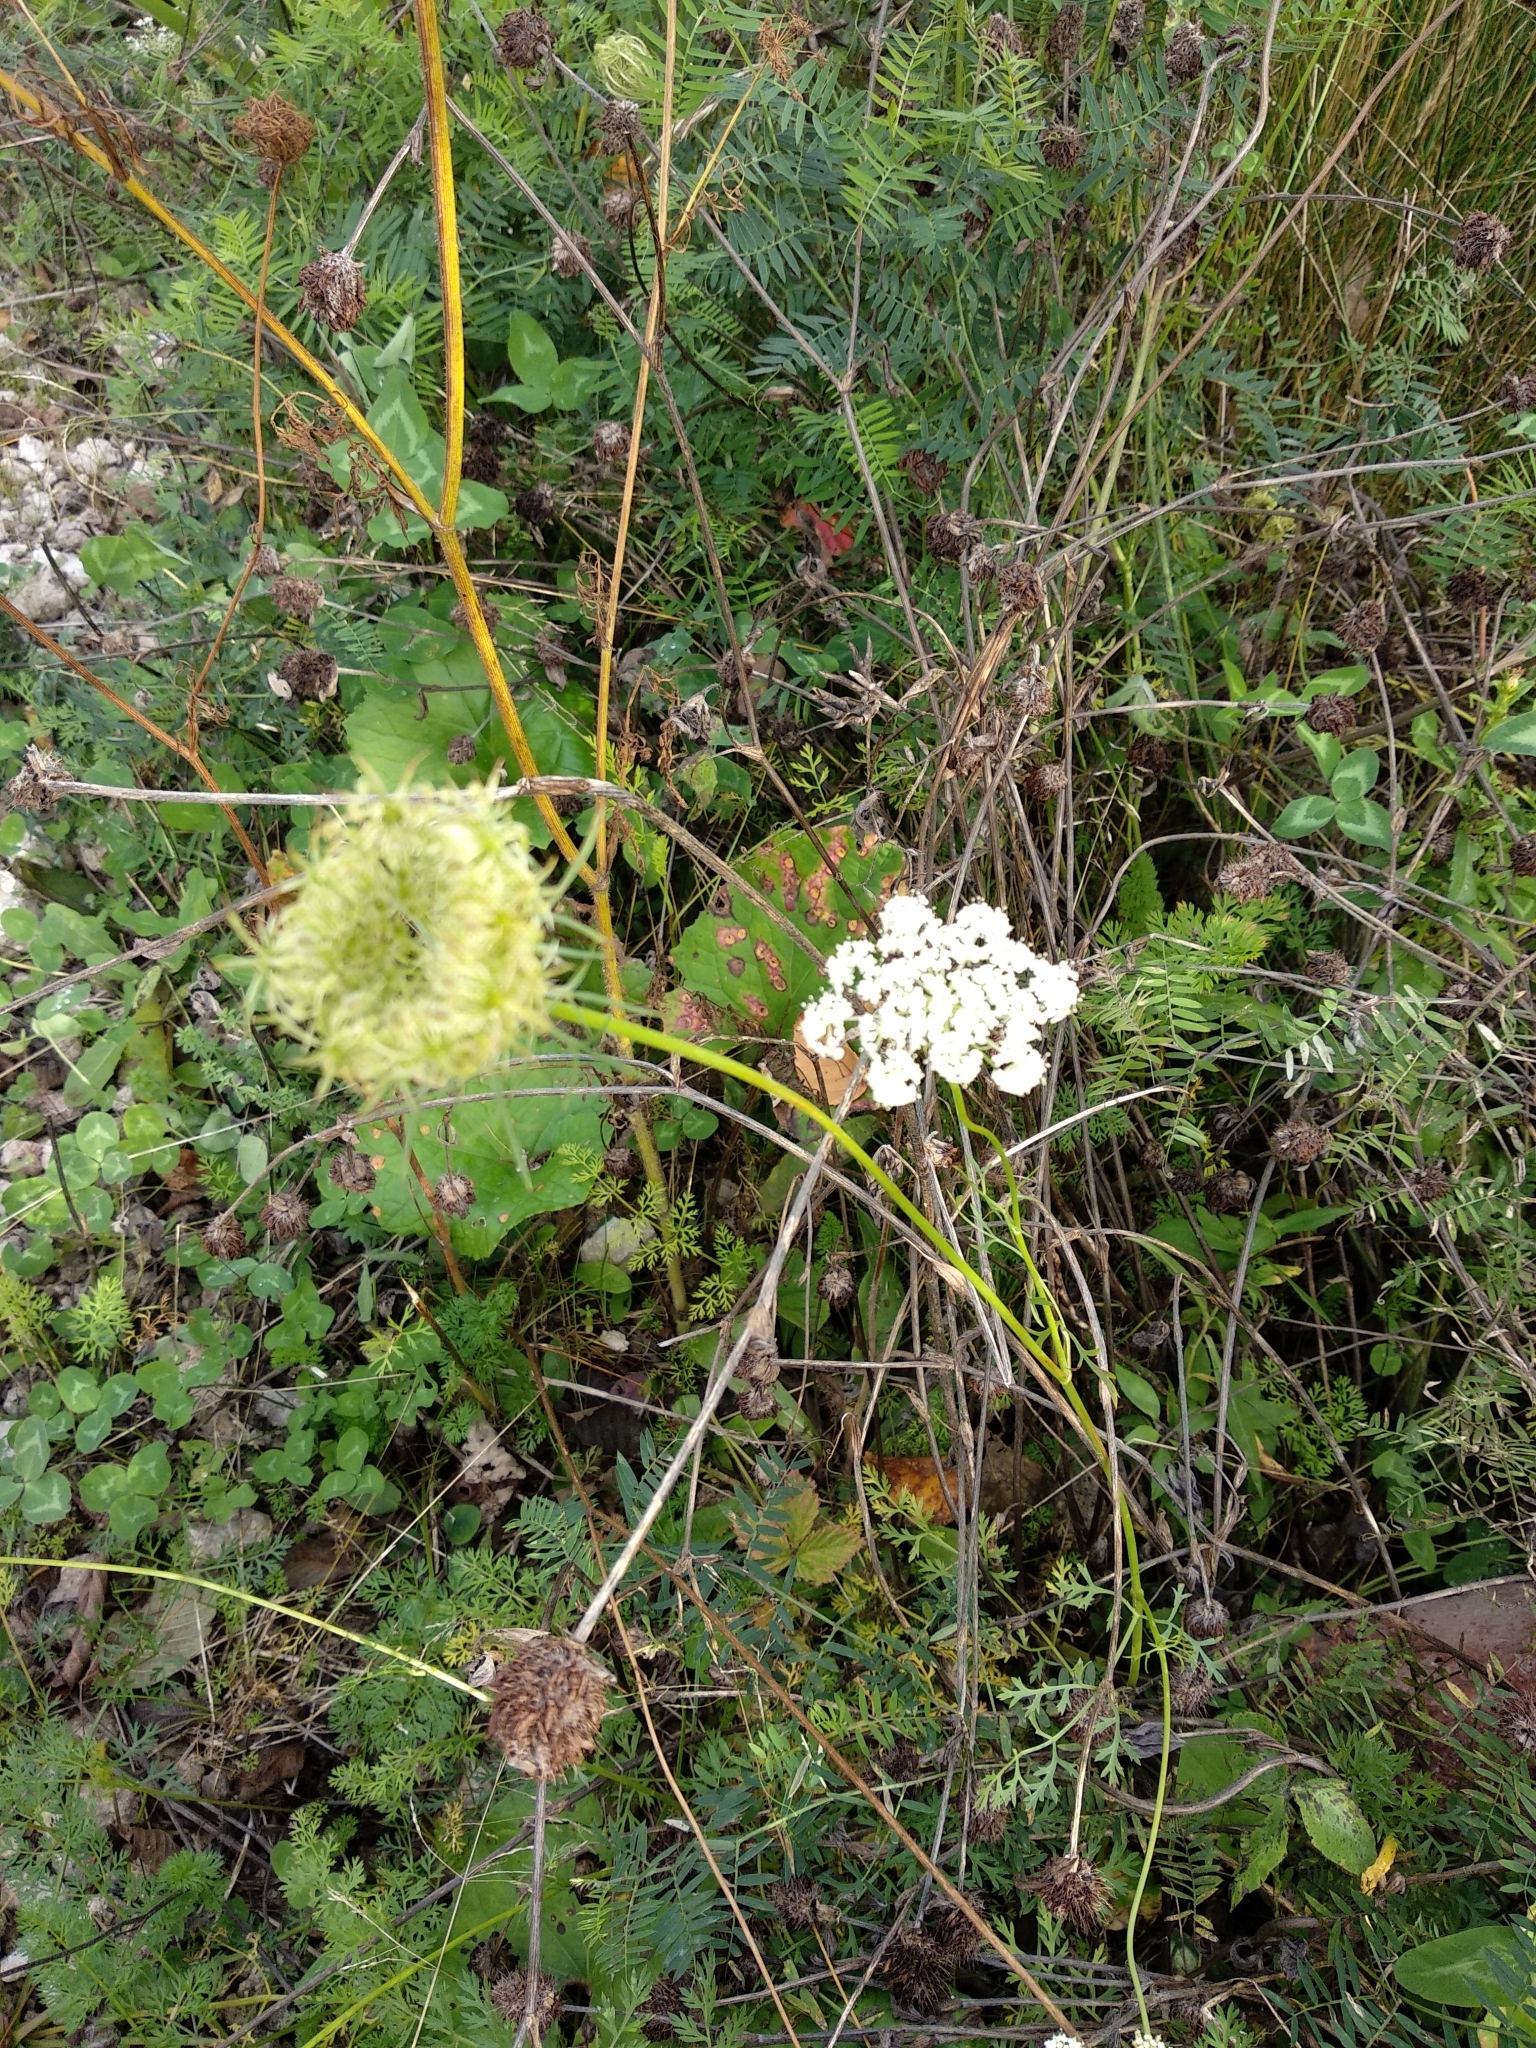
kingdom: Plantae
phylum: Tracheophyta
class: Magnoliopsida
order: Apiales
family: Apiaceae
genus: Daucus
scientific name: Daucus carota
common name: Wild carrot
